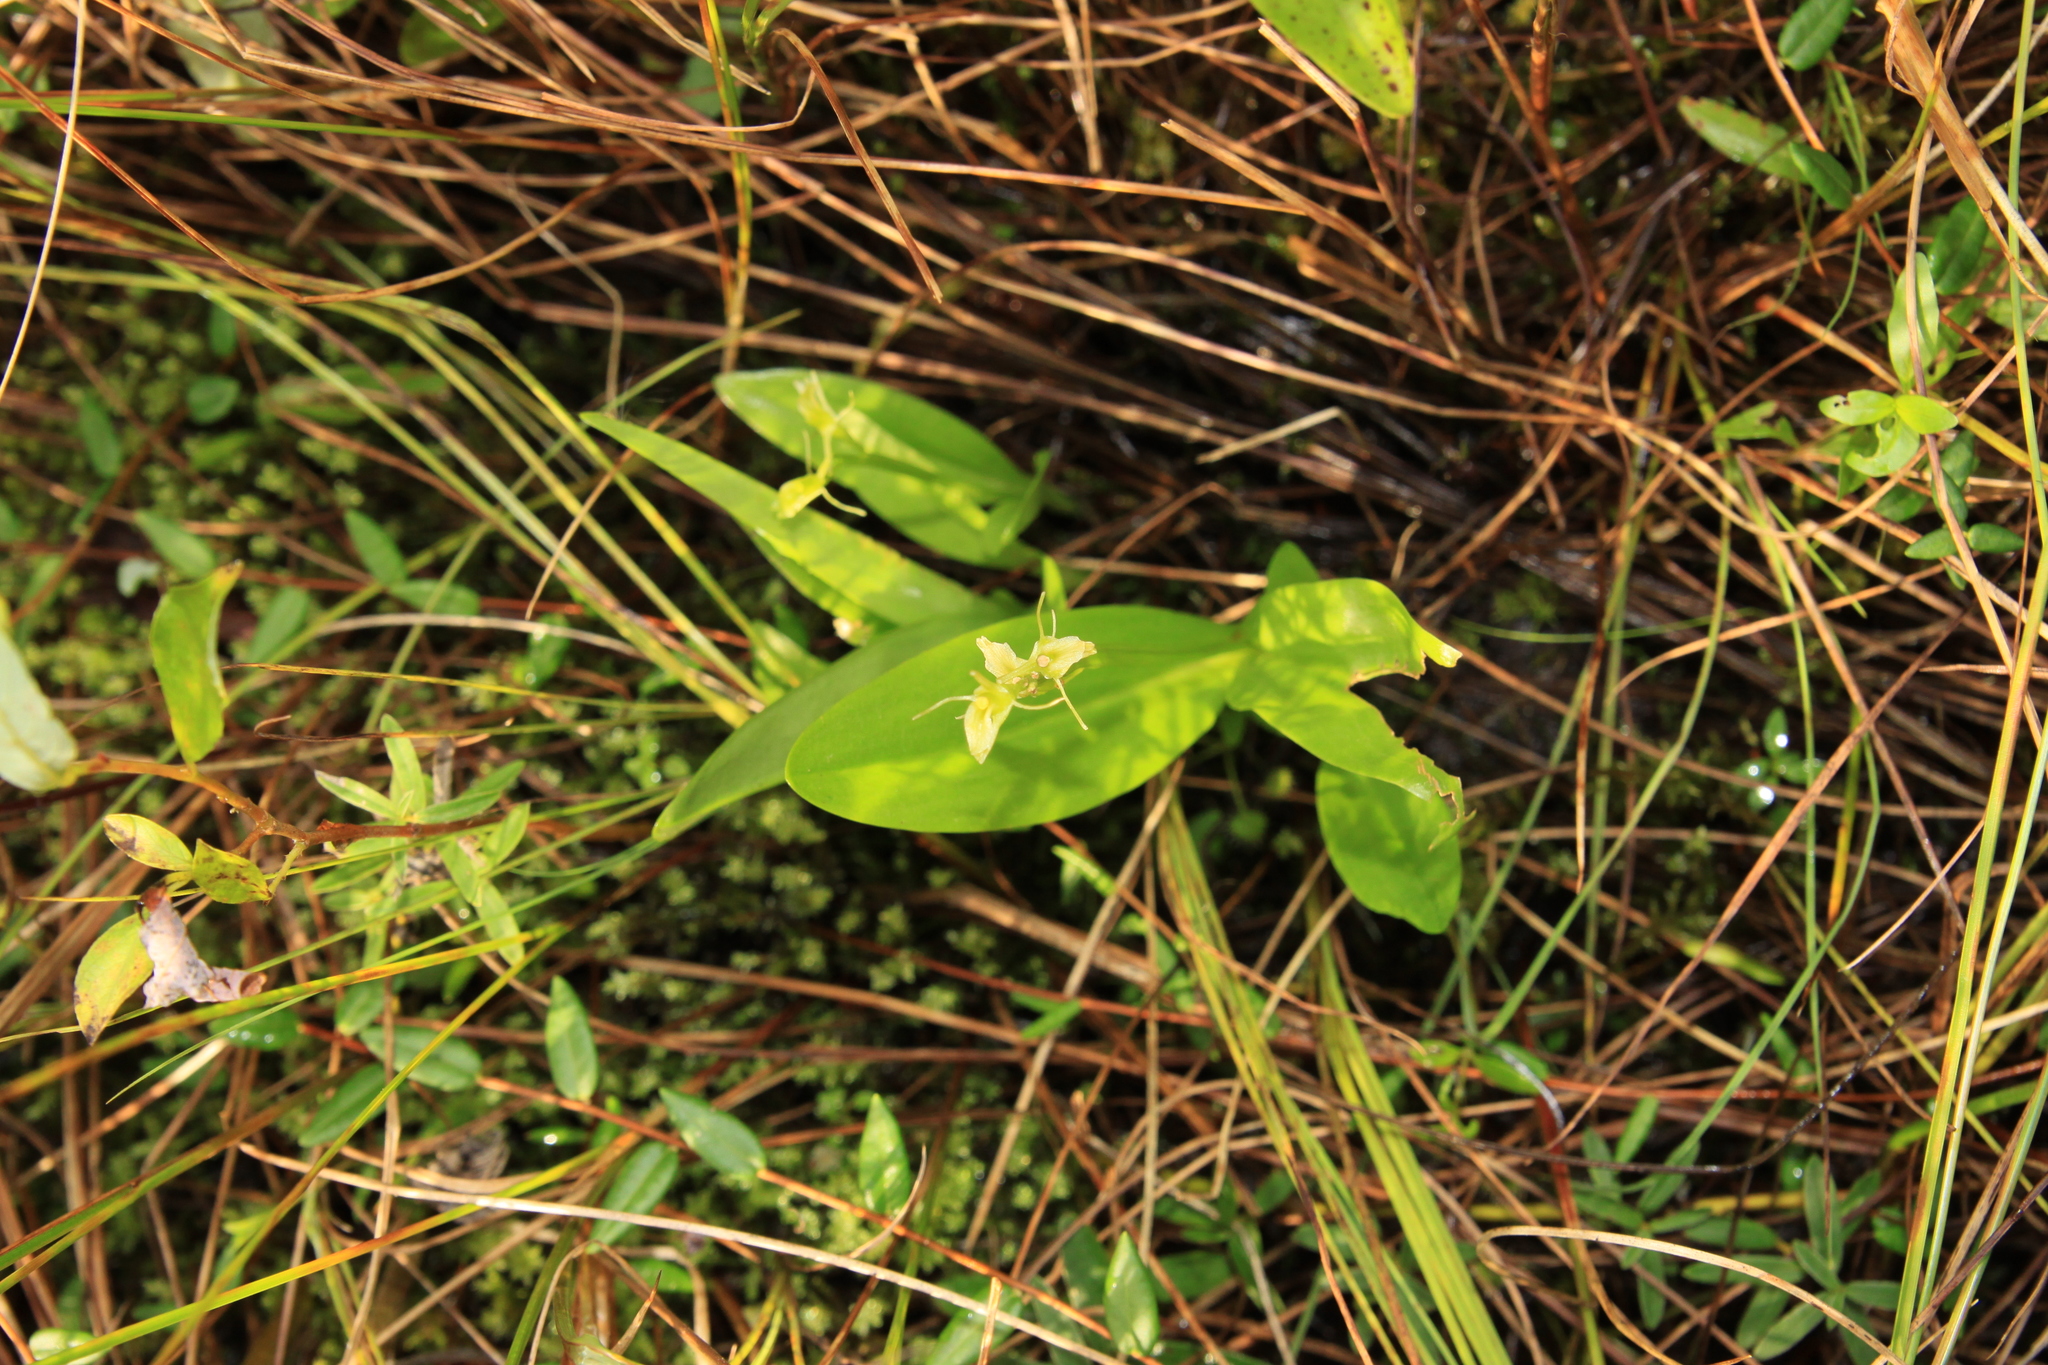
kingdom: Animalia
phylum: Arthropoda
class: Insecta
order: Coleoptera
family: Curculionidae
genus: Liparis
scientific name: Liparis loeselii
